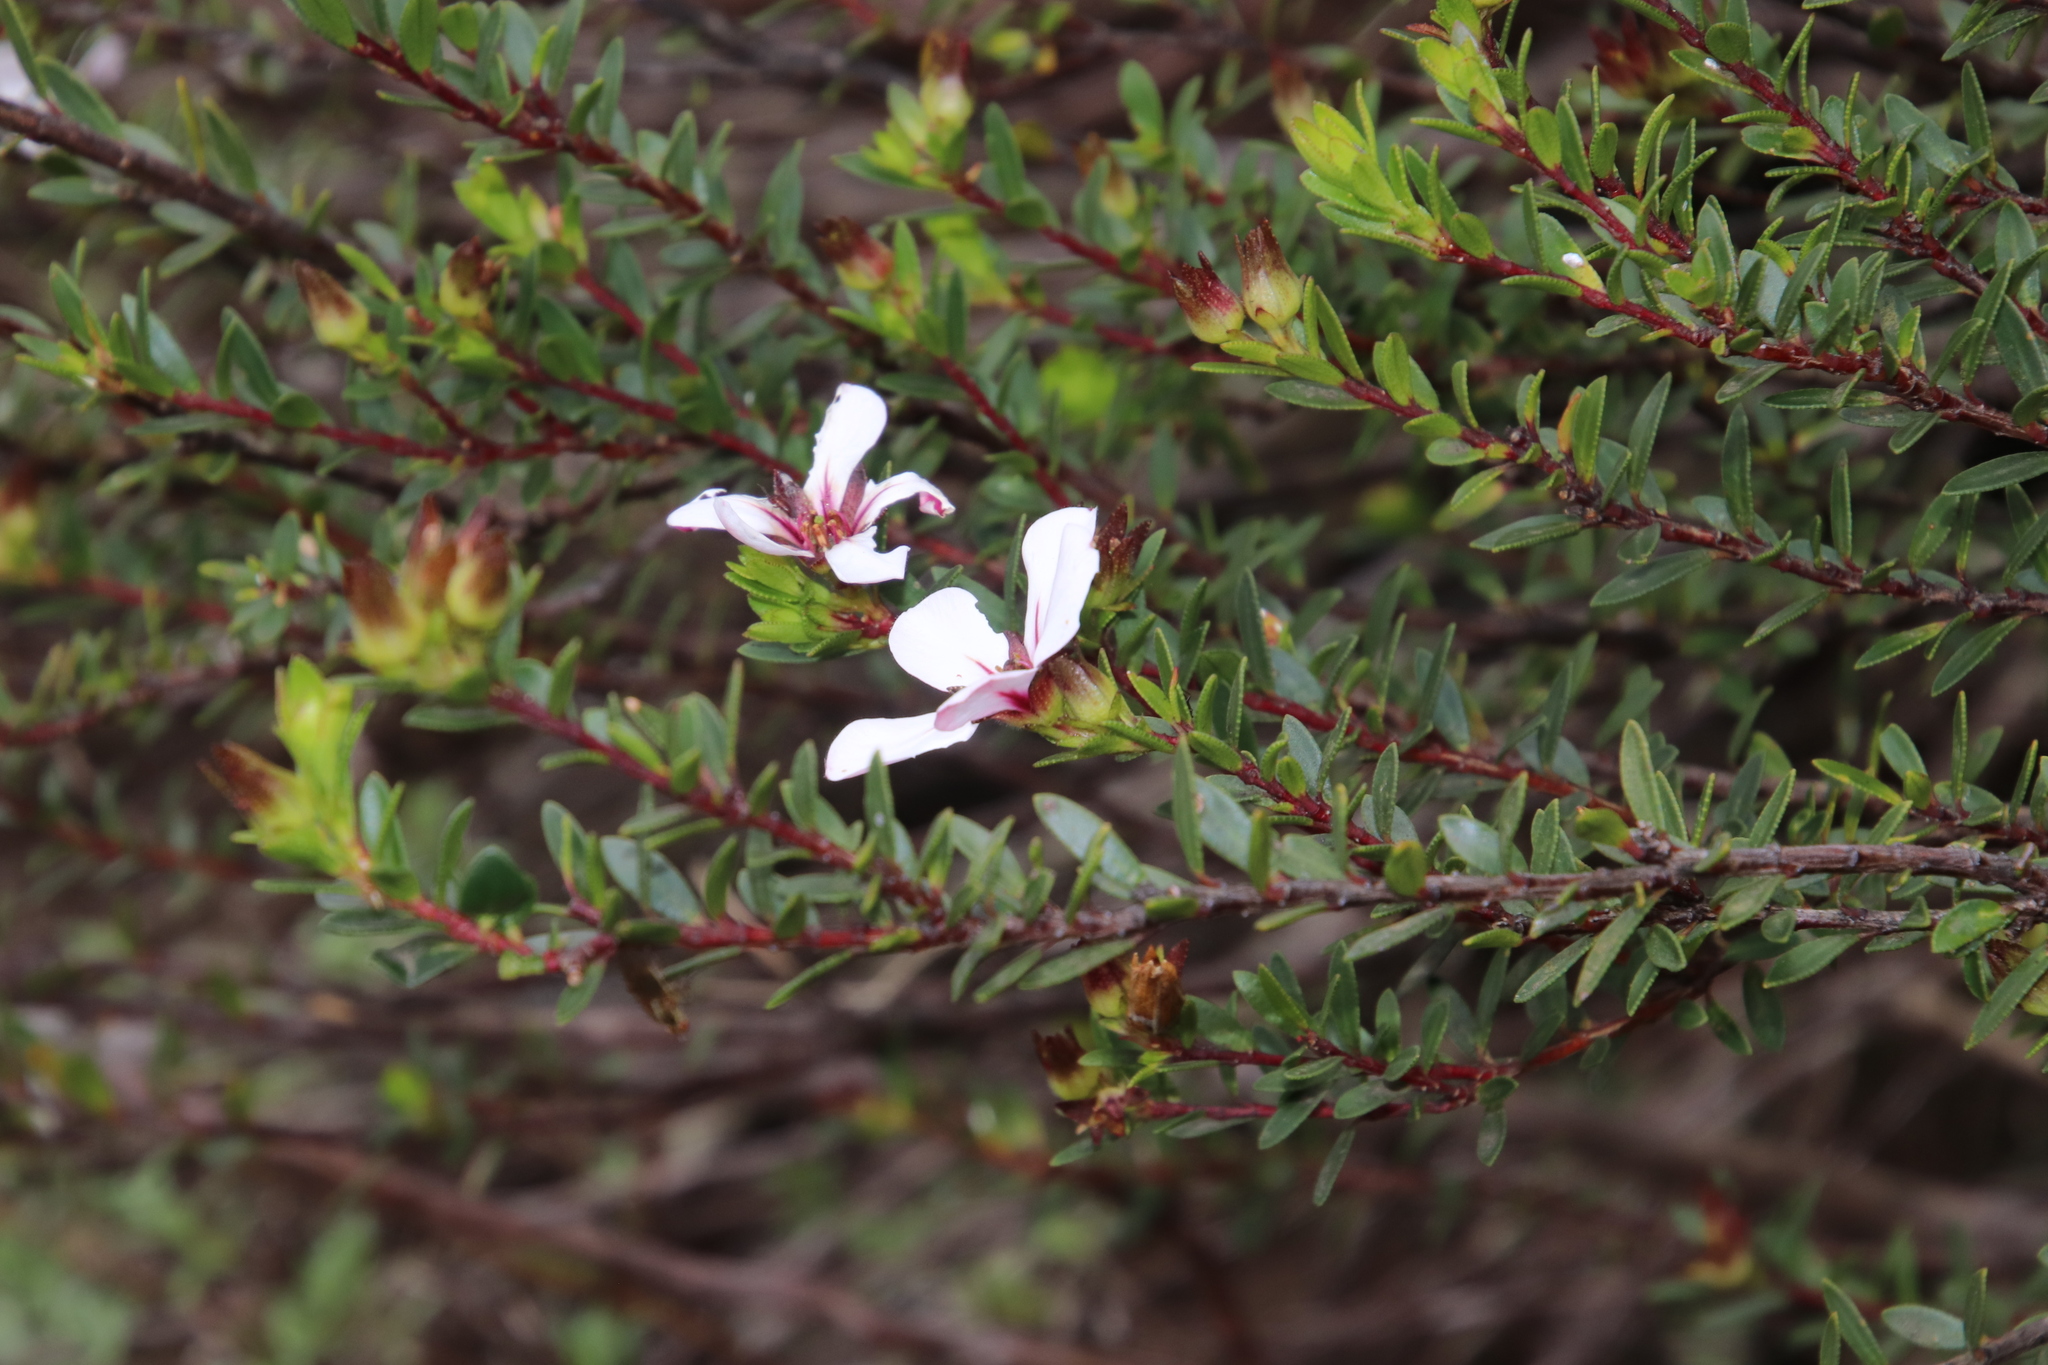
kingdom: Plantae
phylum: Tracheophyta
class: Magnoliopsida
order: Sapindales
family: Rutaceae
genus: Adenandra
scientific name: Adenandra villosa
